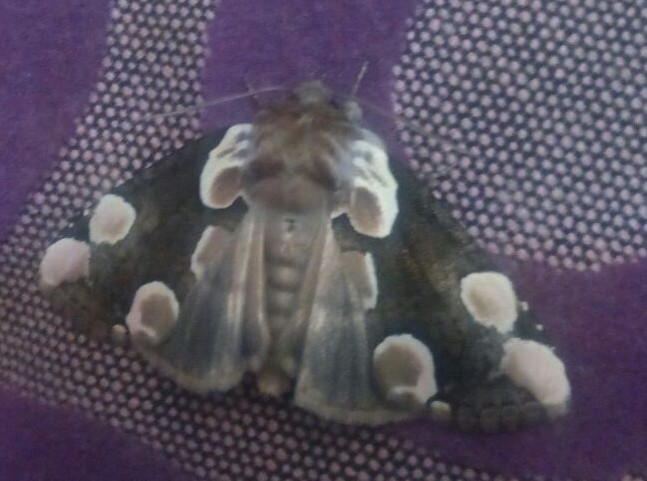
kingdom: Animalia
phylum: Arthropoda
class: Insecta
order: Lepidoptera
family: Drepanidae
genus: Thyatira
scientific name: Thyatira batis
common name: Peach blossom
